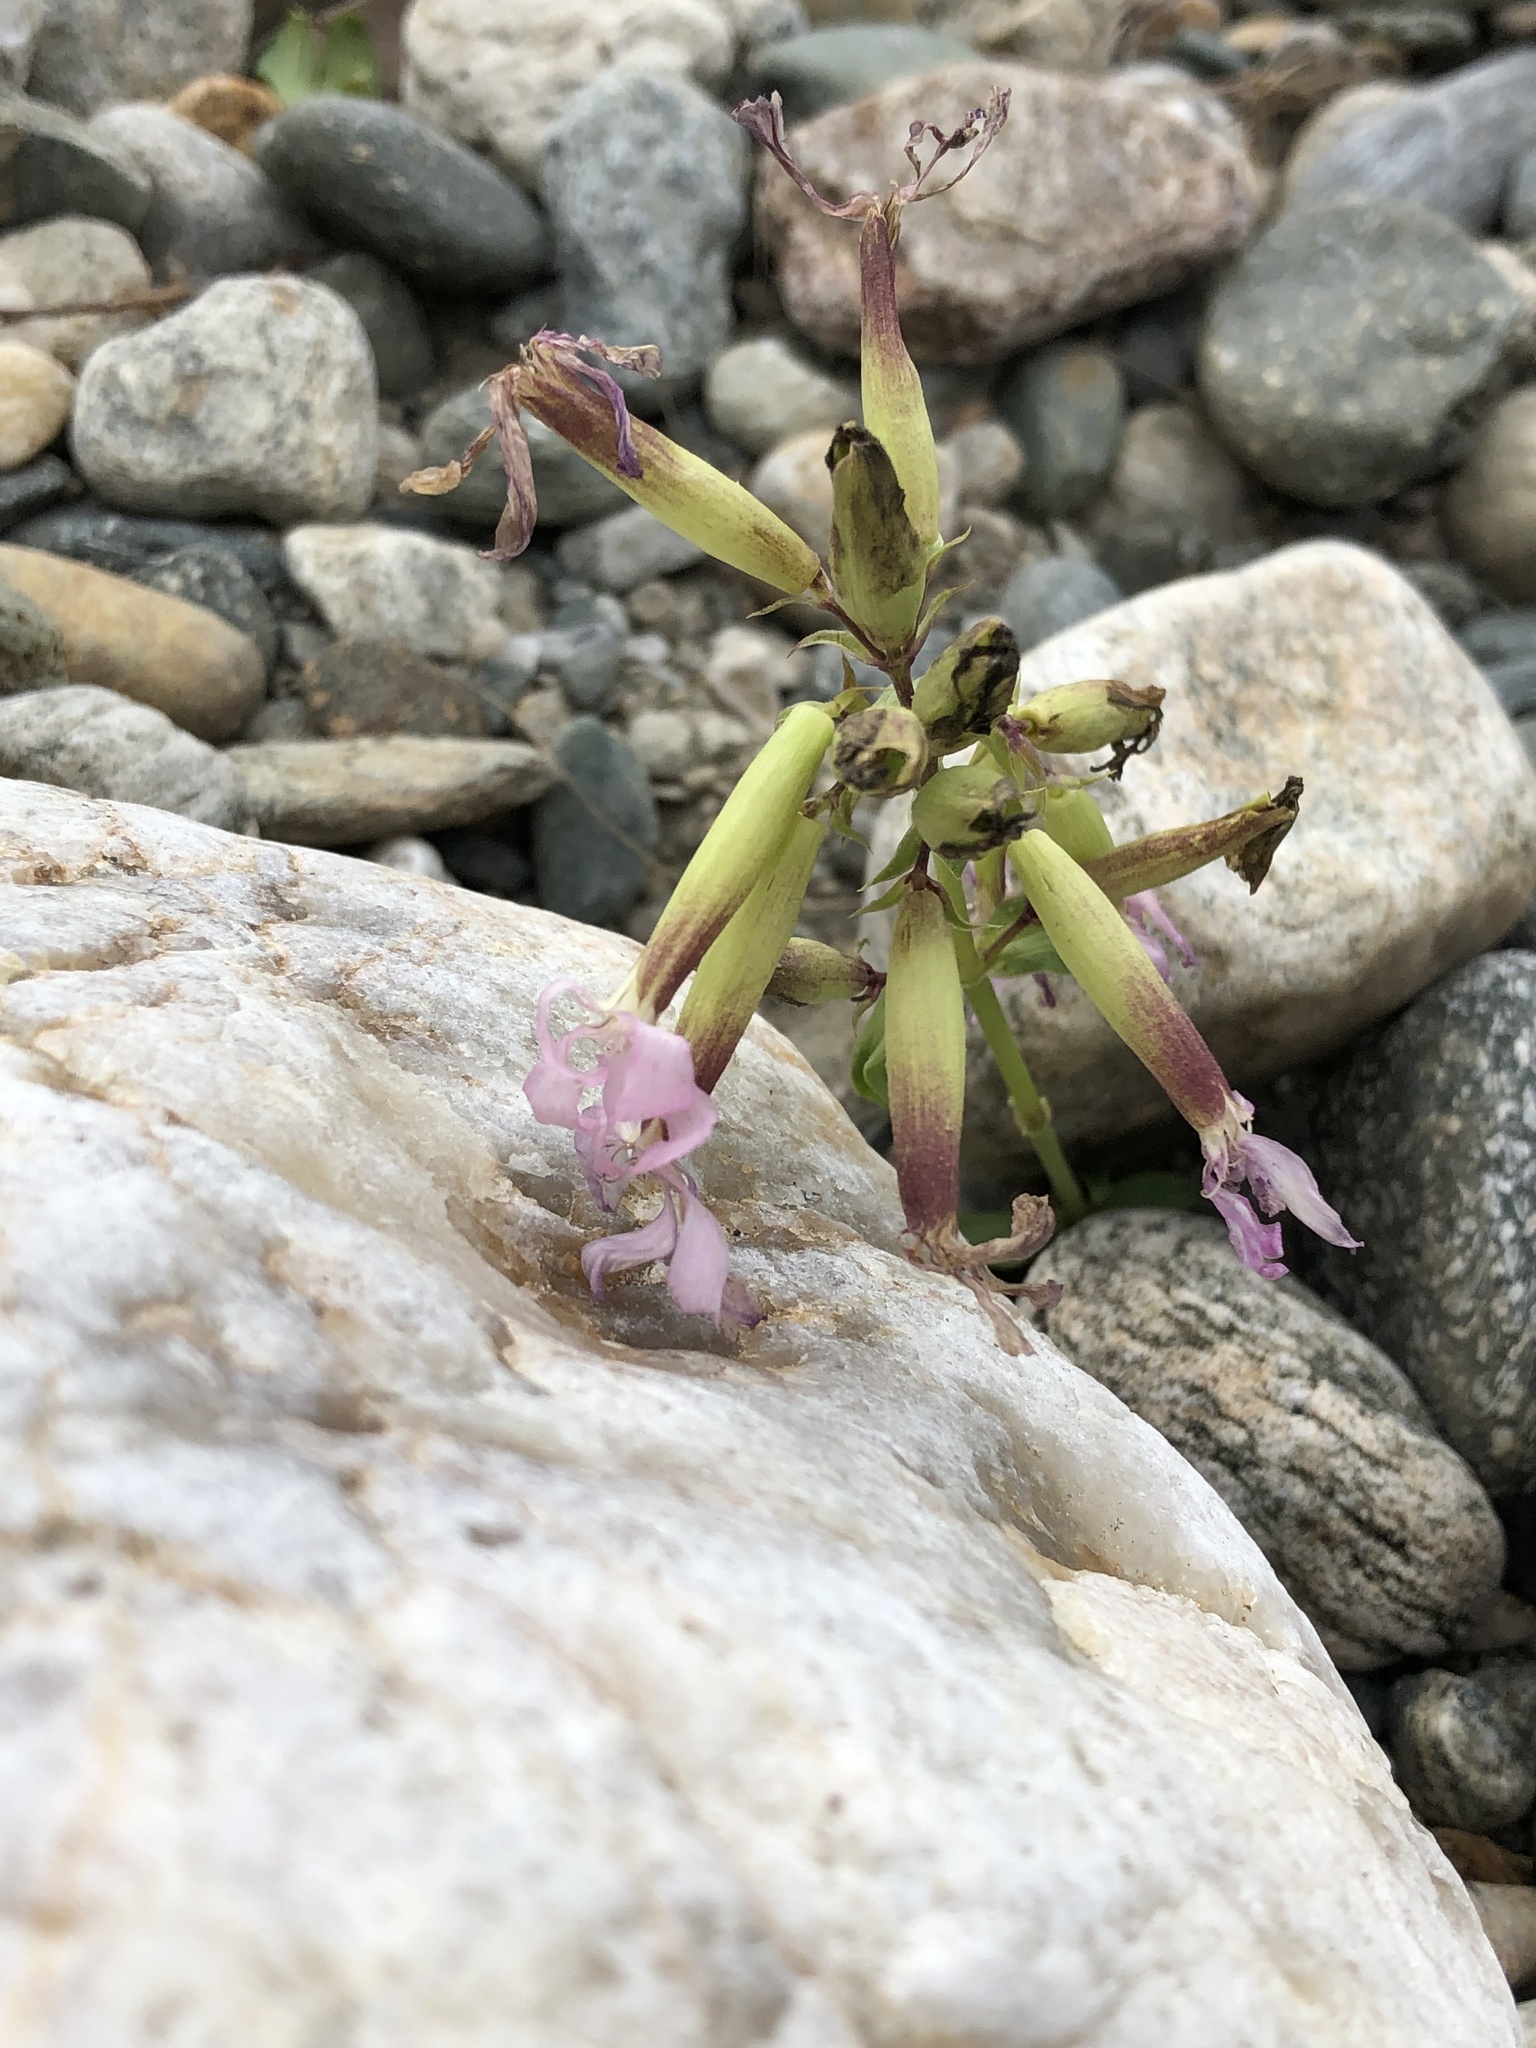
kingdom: Plantae
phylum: Tracheophyta
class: Magnoliopsida
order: Caryophyllales
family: Caryophyllaceae
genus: Saponaria
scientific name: Saponaria officinalis
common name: Soapwort
